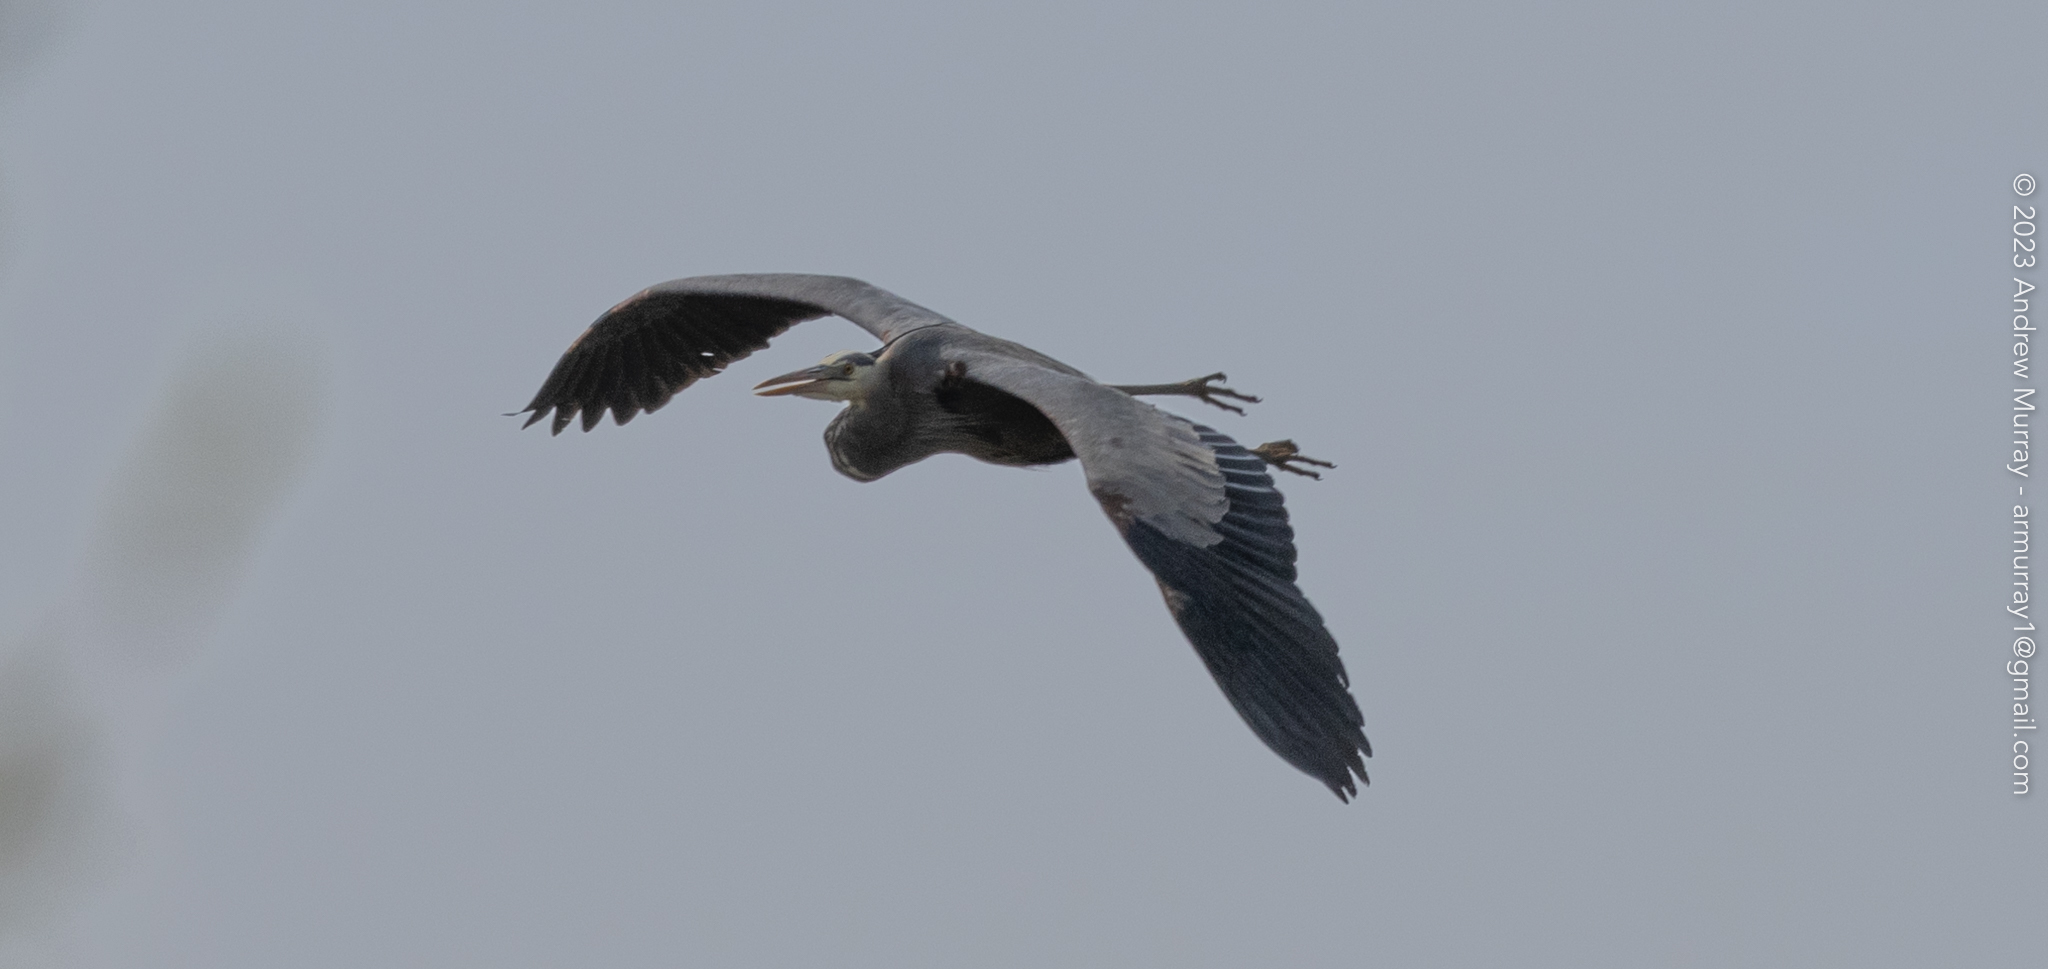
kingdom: Animalia
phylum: Chordata
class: Aves
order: Pelecaniformes
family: Ardeidae
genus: Ardea
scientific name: Ardea herodias
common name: Great blue heron
